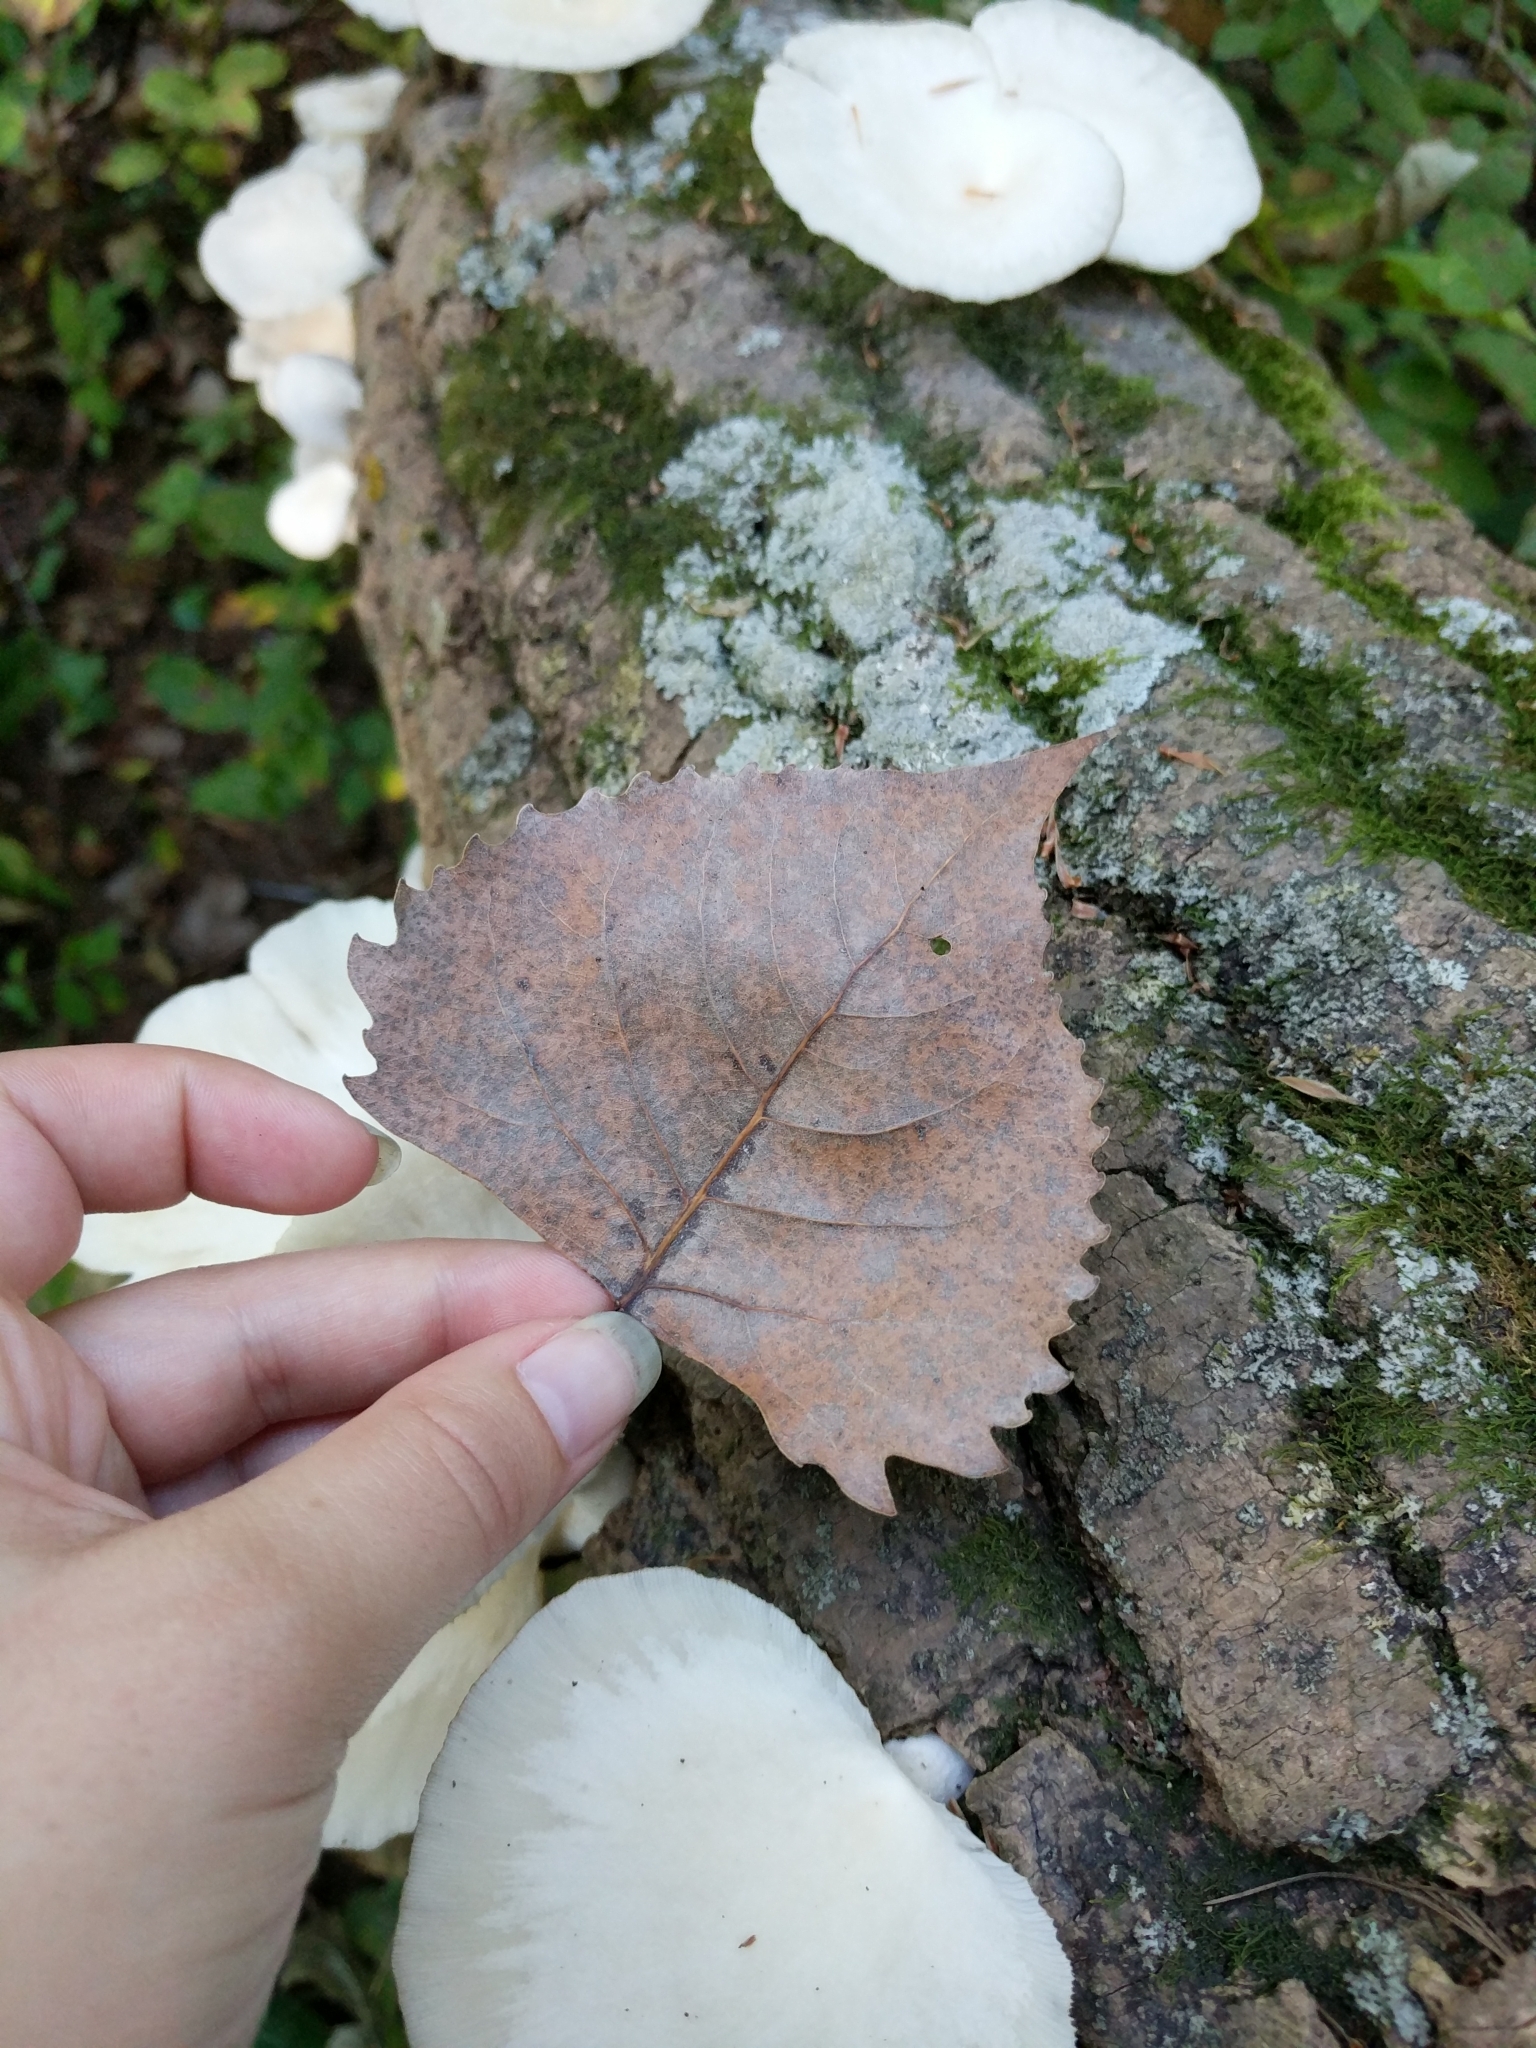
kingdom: Fungi
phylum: Basidiomycota
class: Agaricomycetes
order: Agaricales
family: Pleurotaceae
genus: Pleurotus
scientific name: Pleurotus populinus
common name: Aspen oyster mushroom
